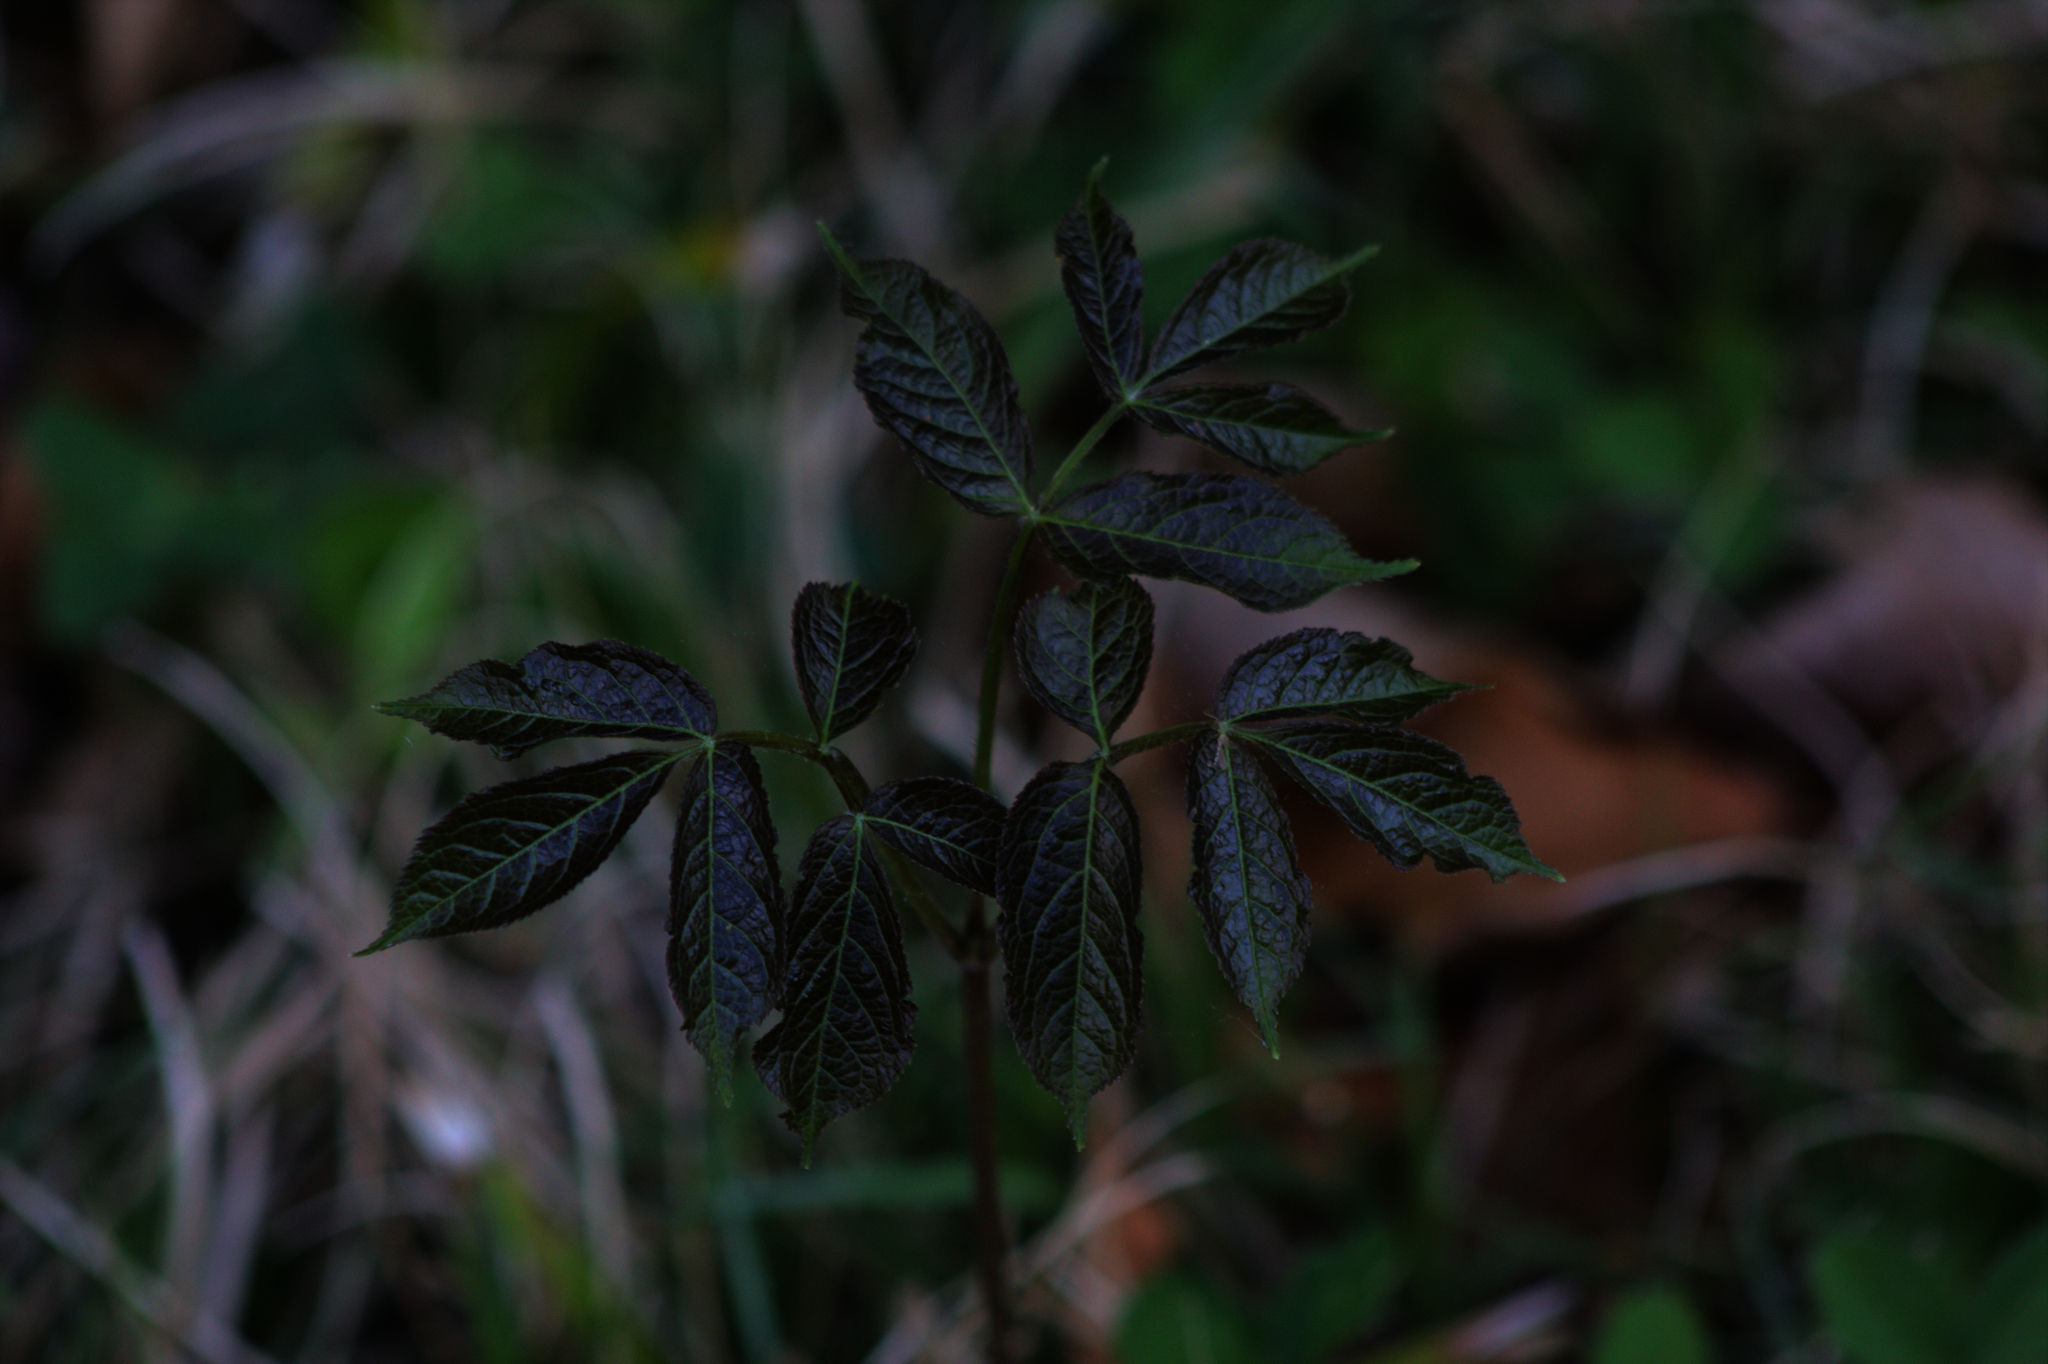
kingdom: Plantae
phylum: Tracheophyta
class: Magnoliopsida
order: Apiales
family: Araliaceae
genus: Aralia
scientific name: Aralia nudicaulis
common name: Wild sarsaparilla
